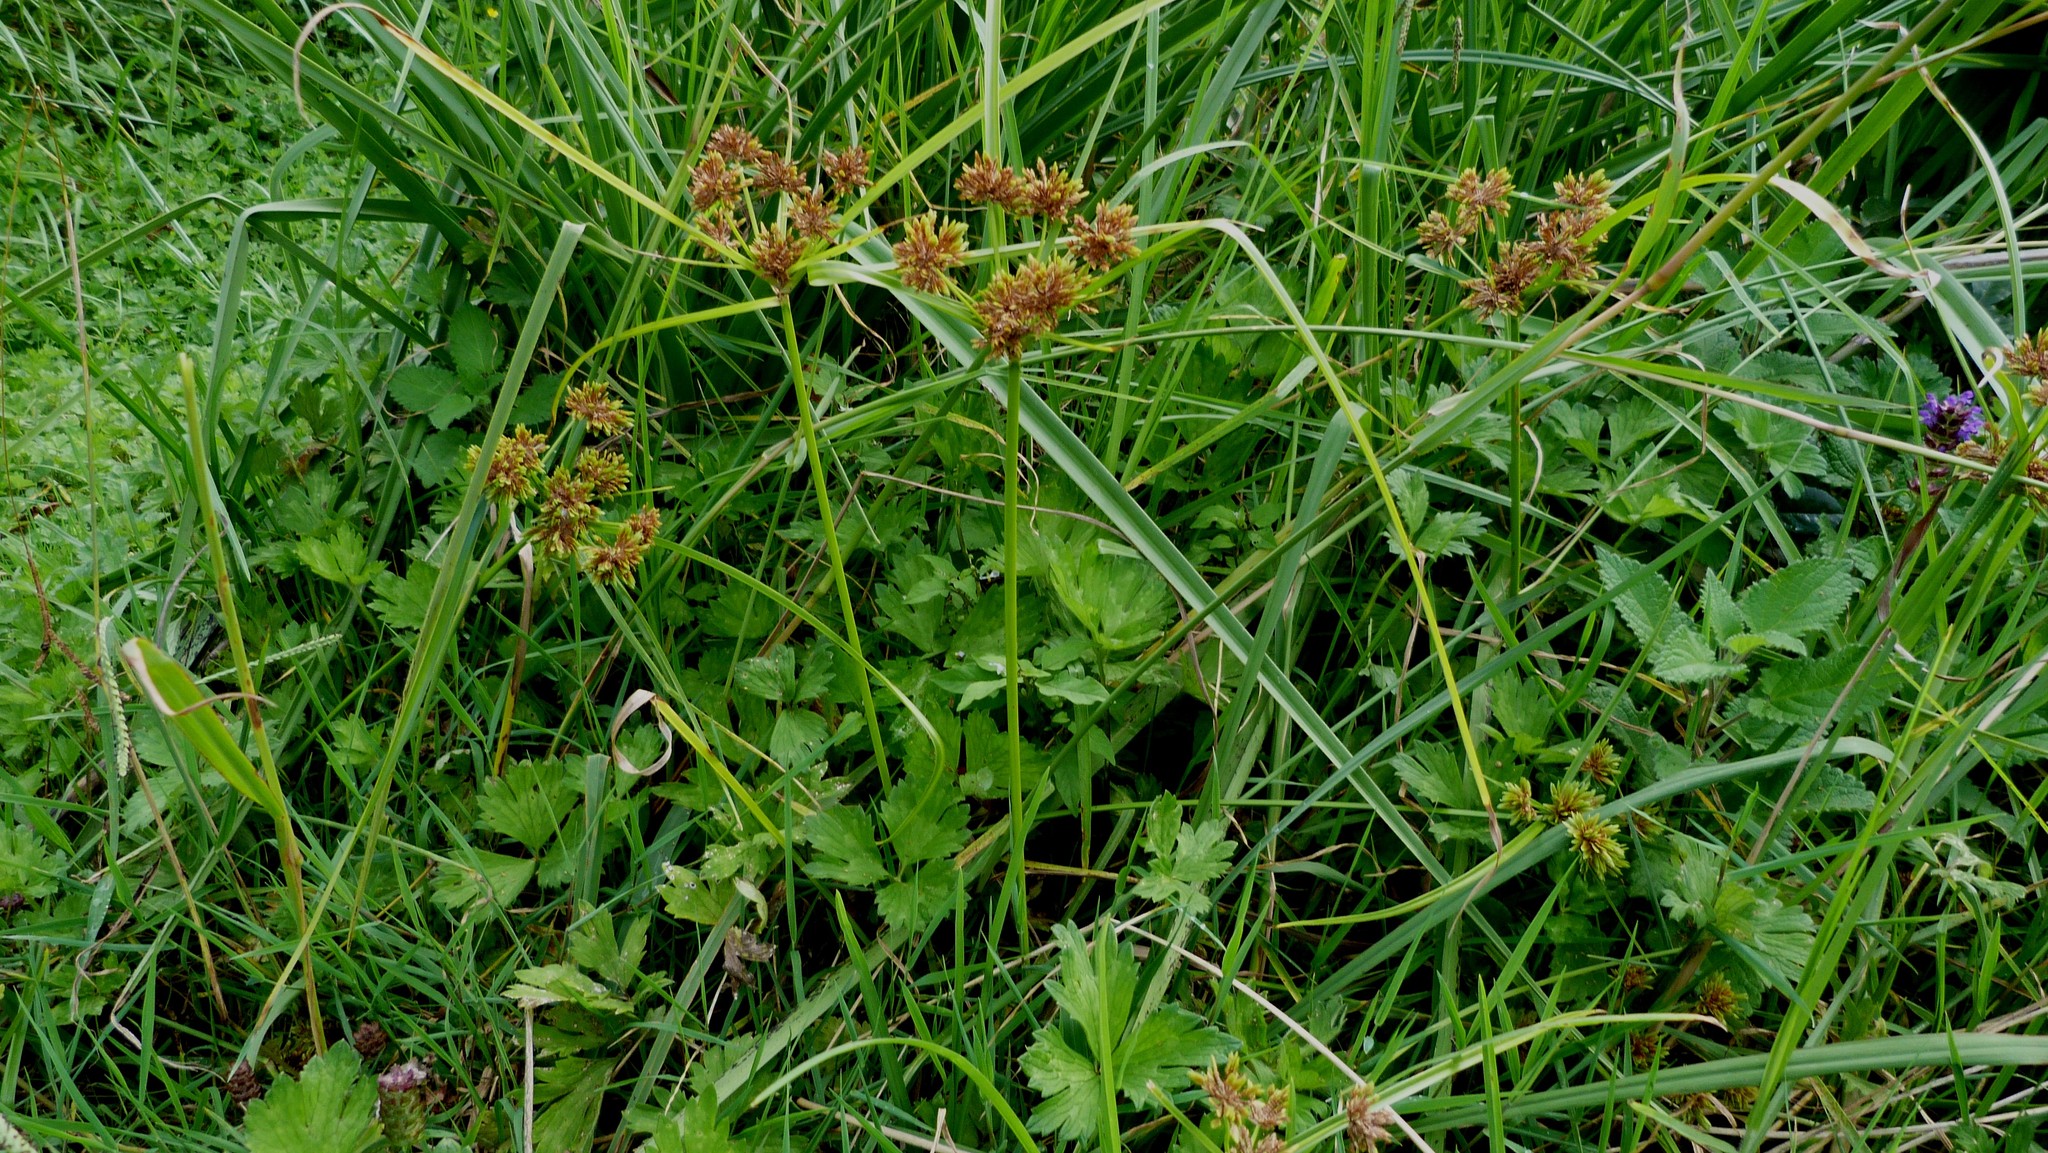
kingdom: Plantae
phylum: Tracheophyta
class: Liliopsida
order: Poales
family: Cyperaceae
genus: Cyperus
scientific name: Cyperus eragrostis
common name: Tall flatsedge
